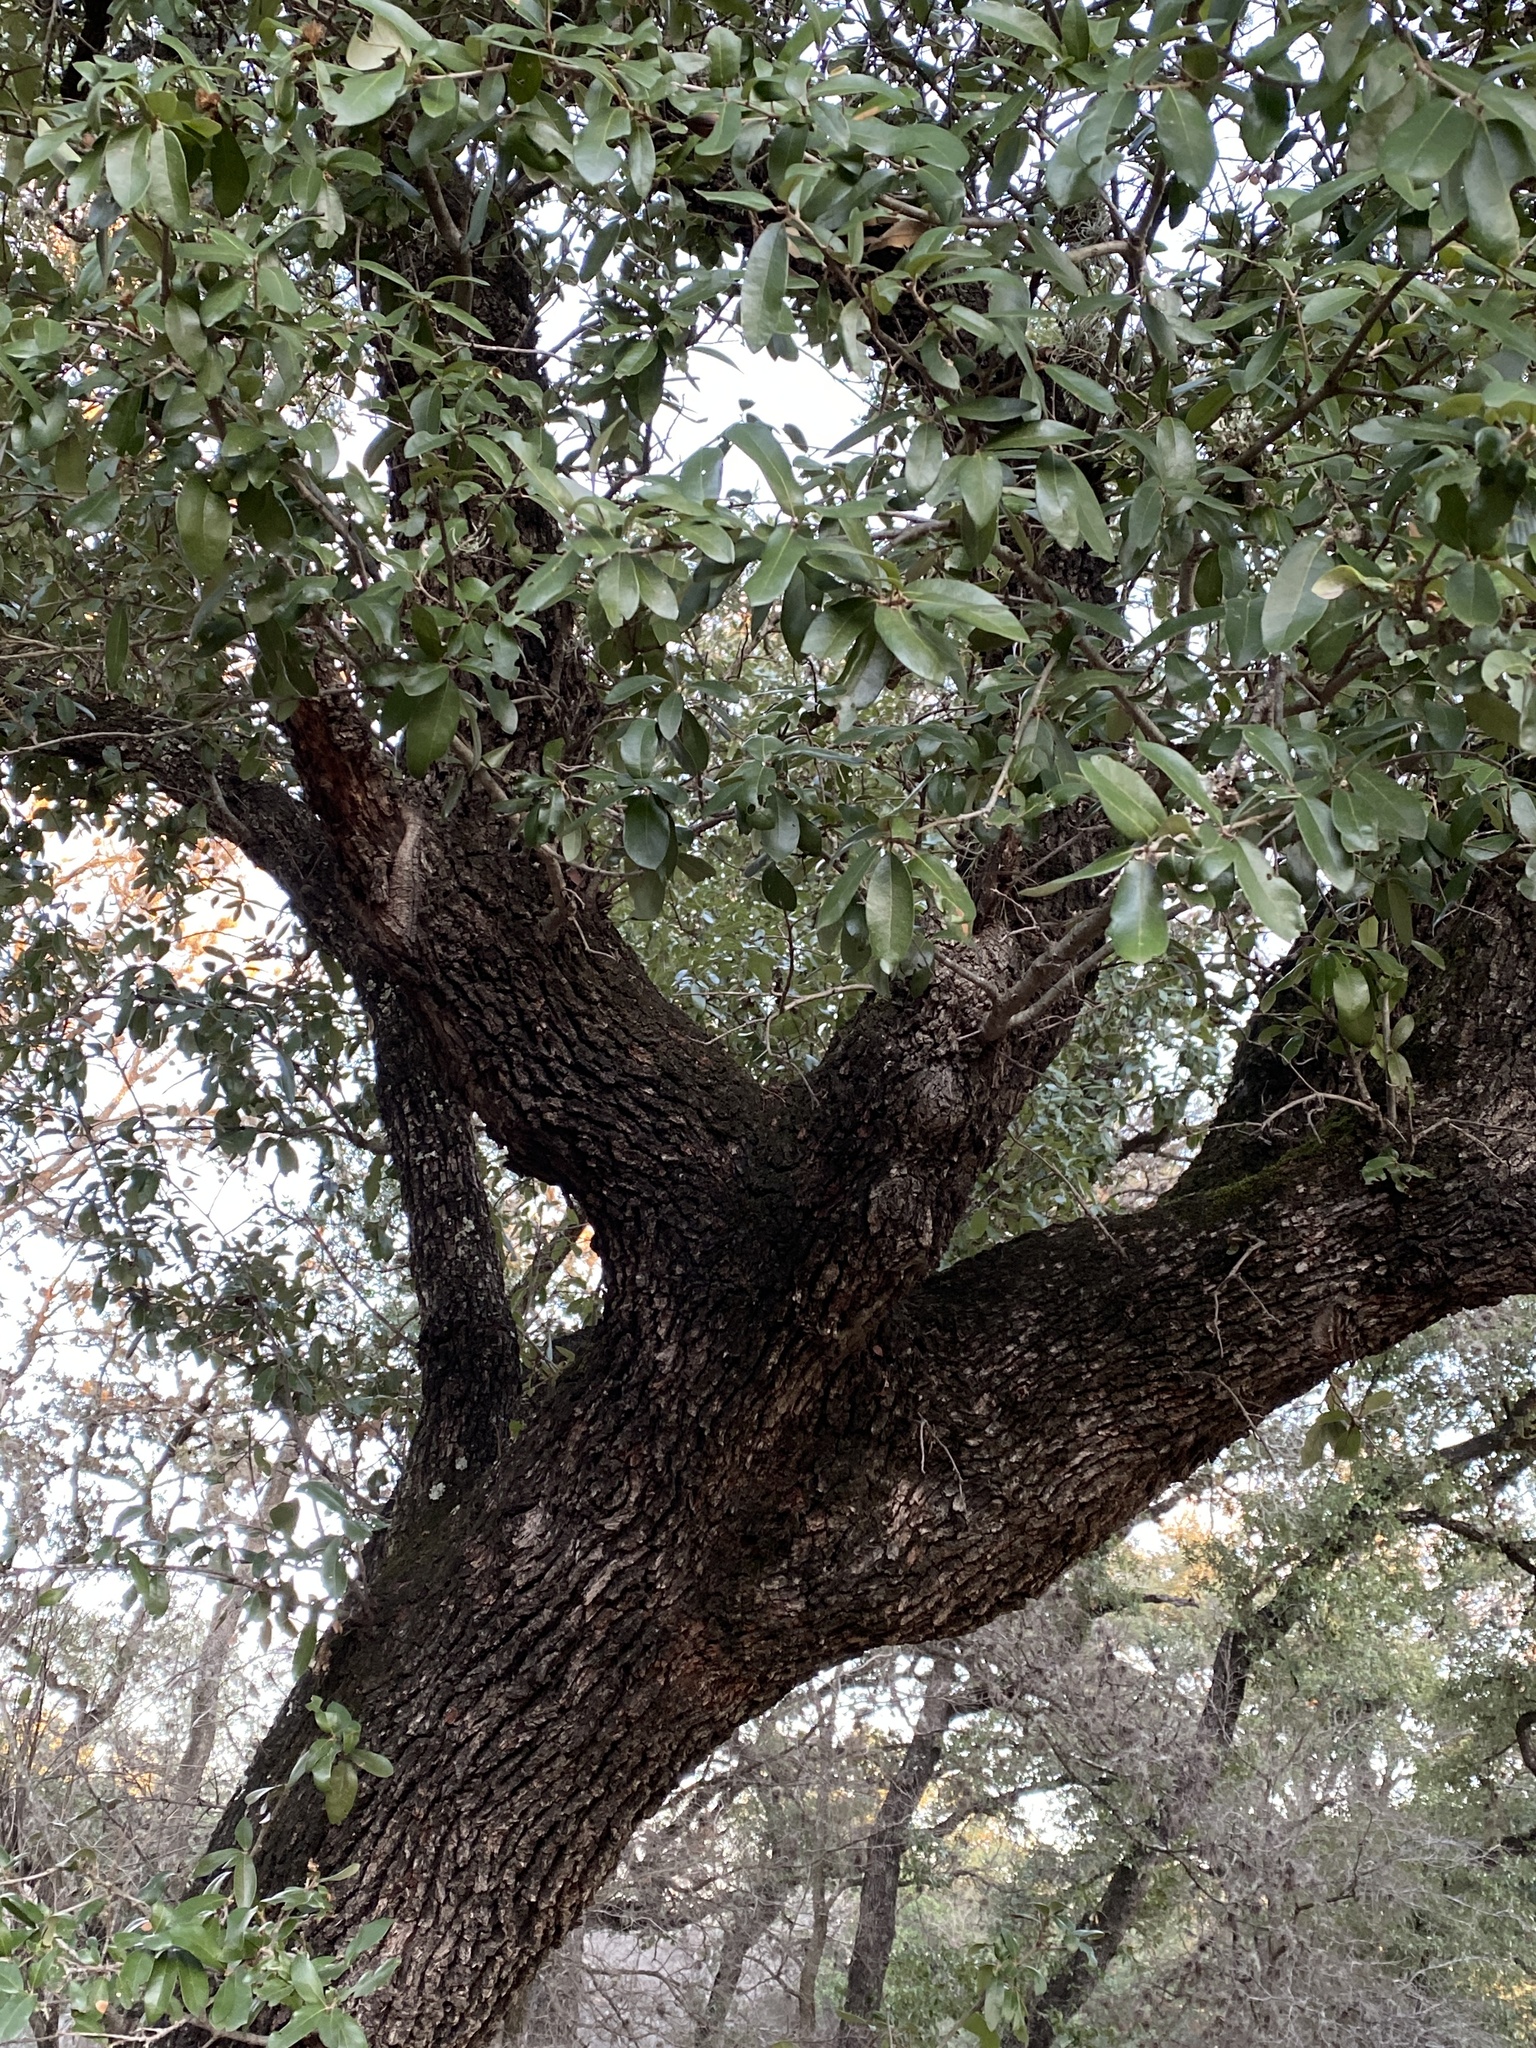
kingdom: Plantae
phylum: Tracheophyta
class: Magnoliopsida
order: Fagales
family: Fagaceae
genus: Quercus
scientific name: Quercus fusiformis
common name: Texas live oak
